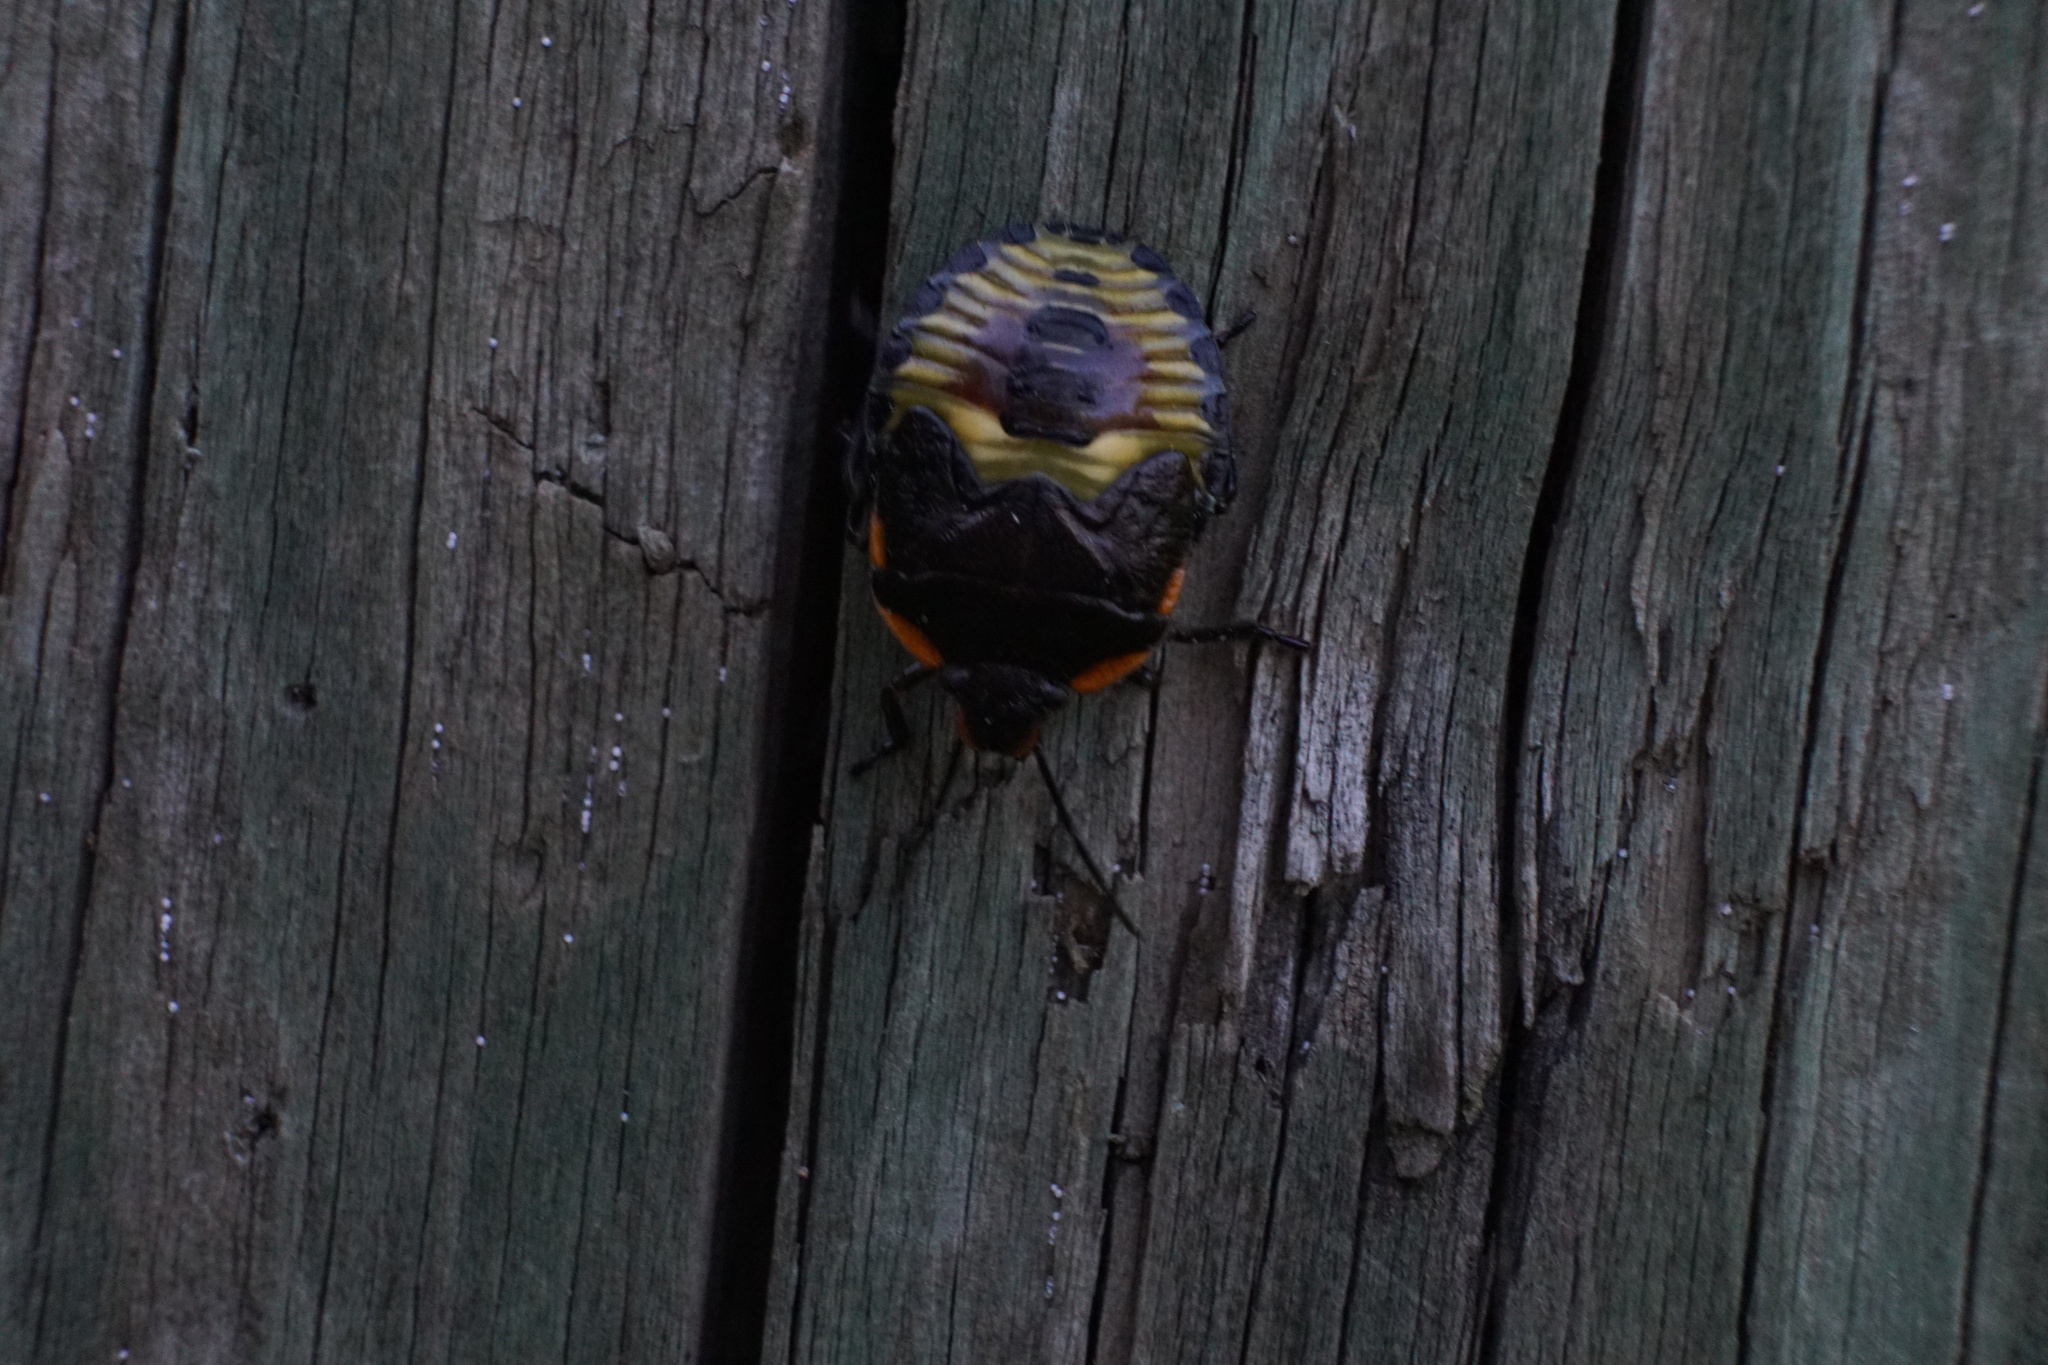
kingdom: Animalia
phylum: Arthropoda
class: Insecta
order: Hemiptera
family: Pentatomidae
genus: Chinavia
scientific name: Chinavia hilaris
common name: Green stink bug
